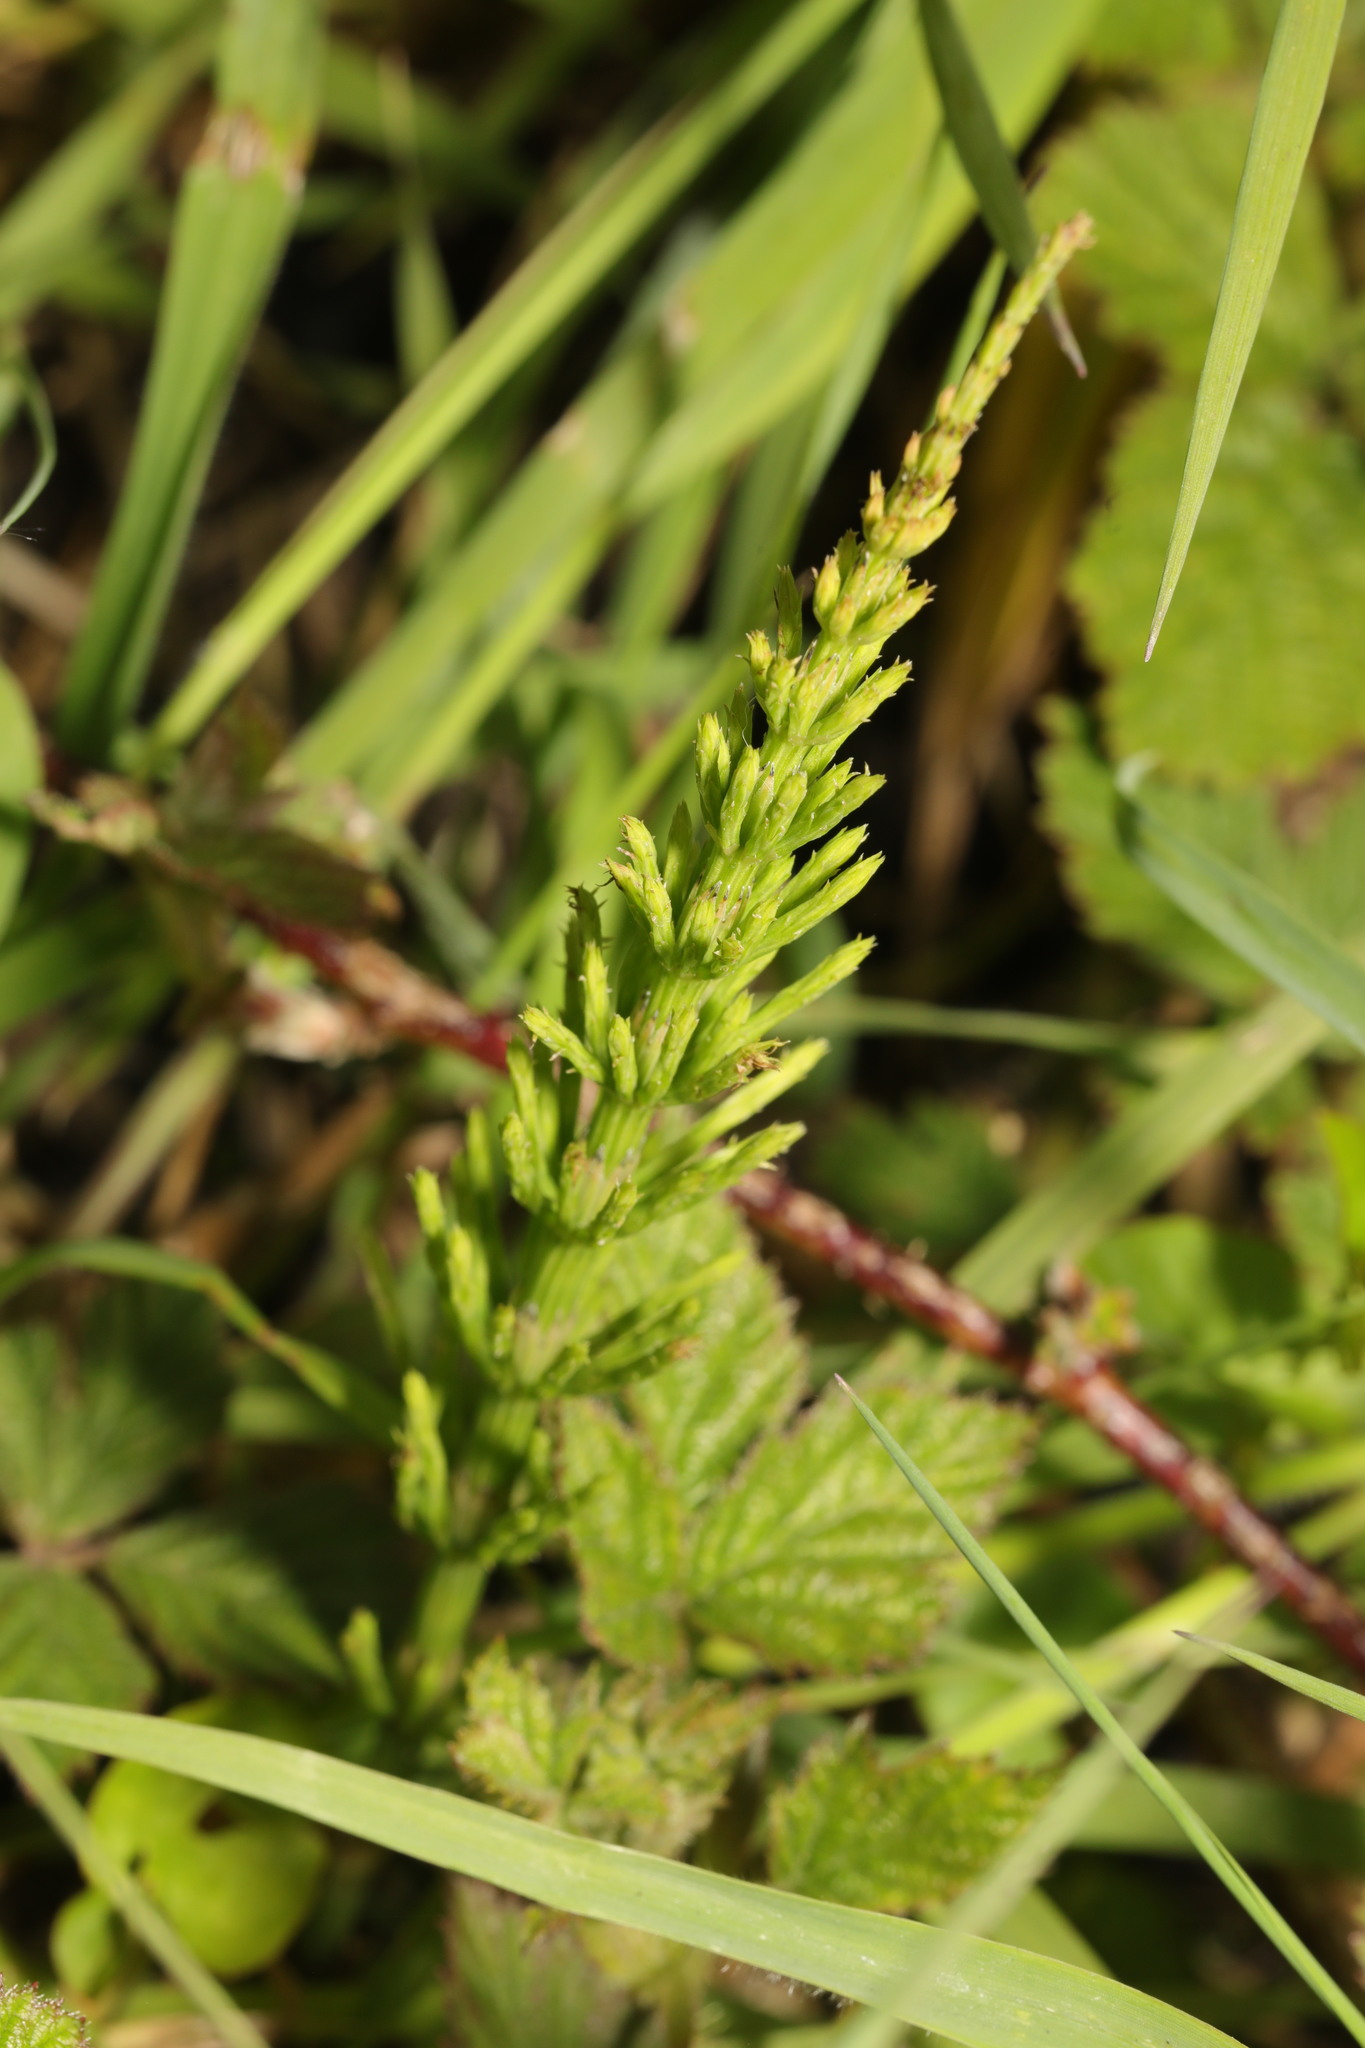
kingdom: Plantae
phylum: Tracheophyta
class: Polypodiopsida
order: Equisetales
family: Equisetaceae
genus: Equisetum
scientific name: Equisetum arvense
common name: Field horsetail
